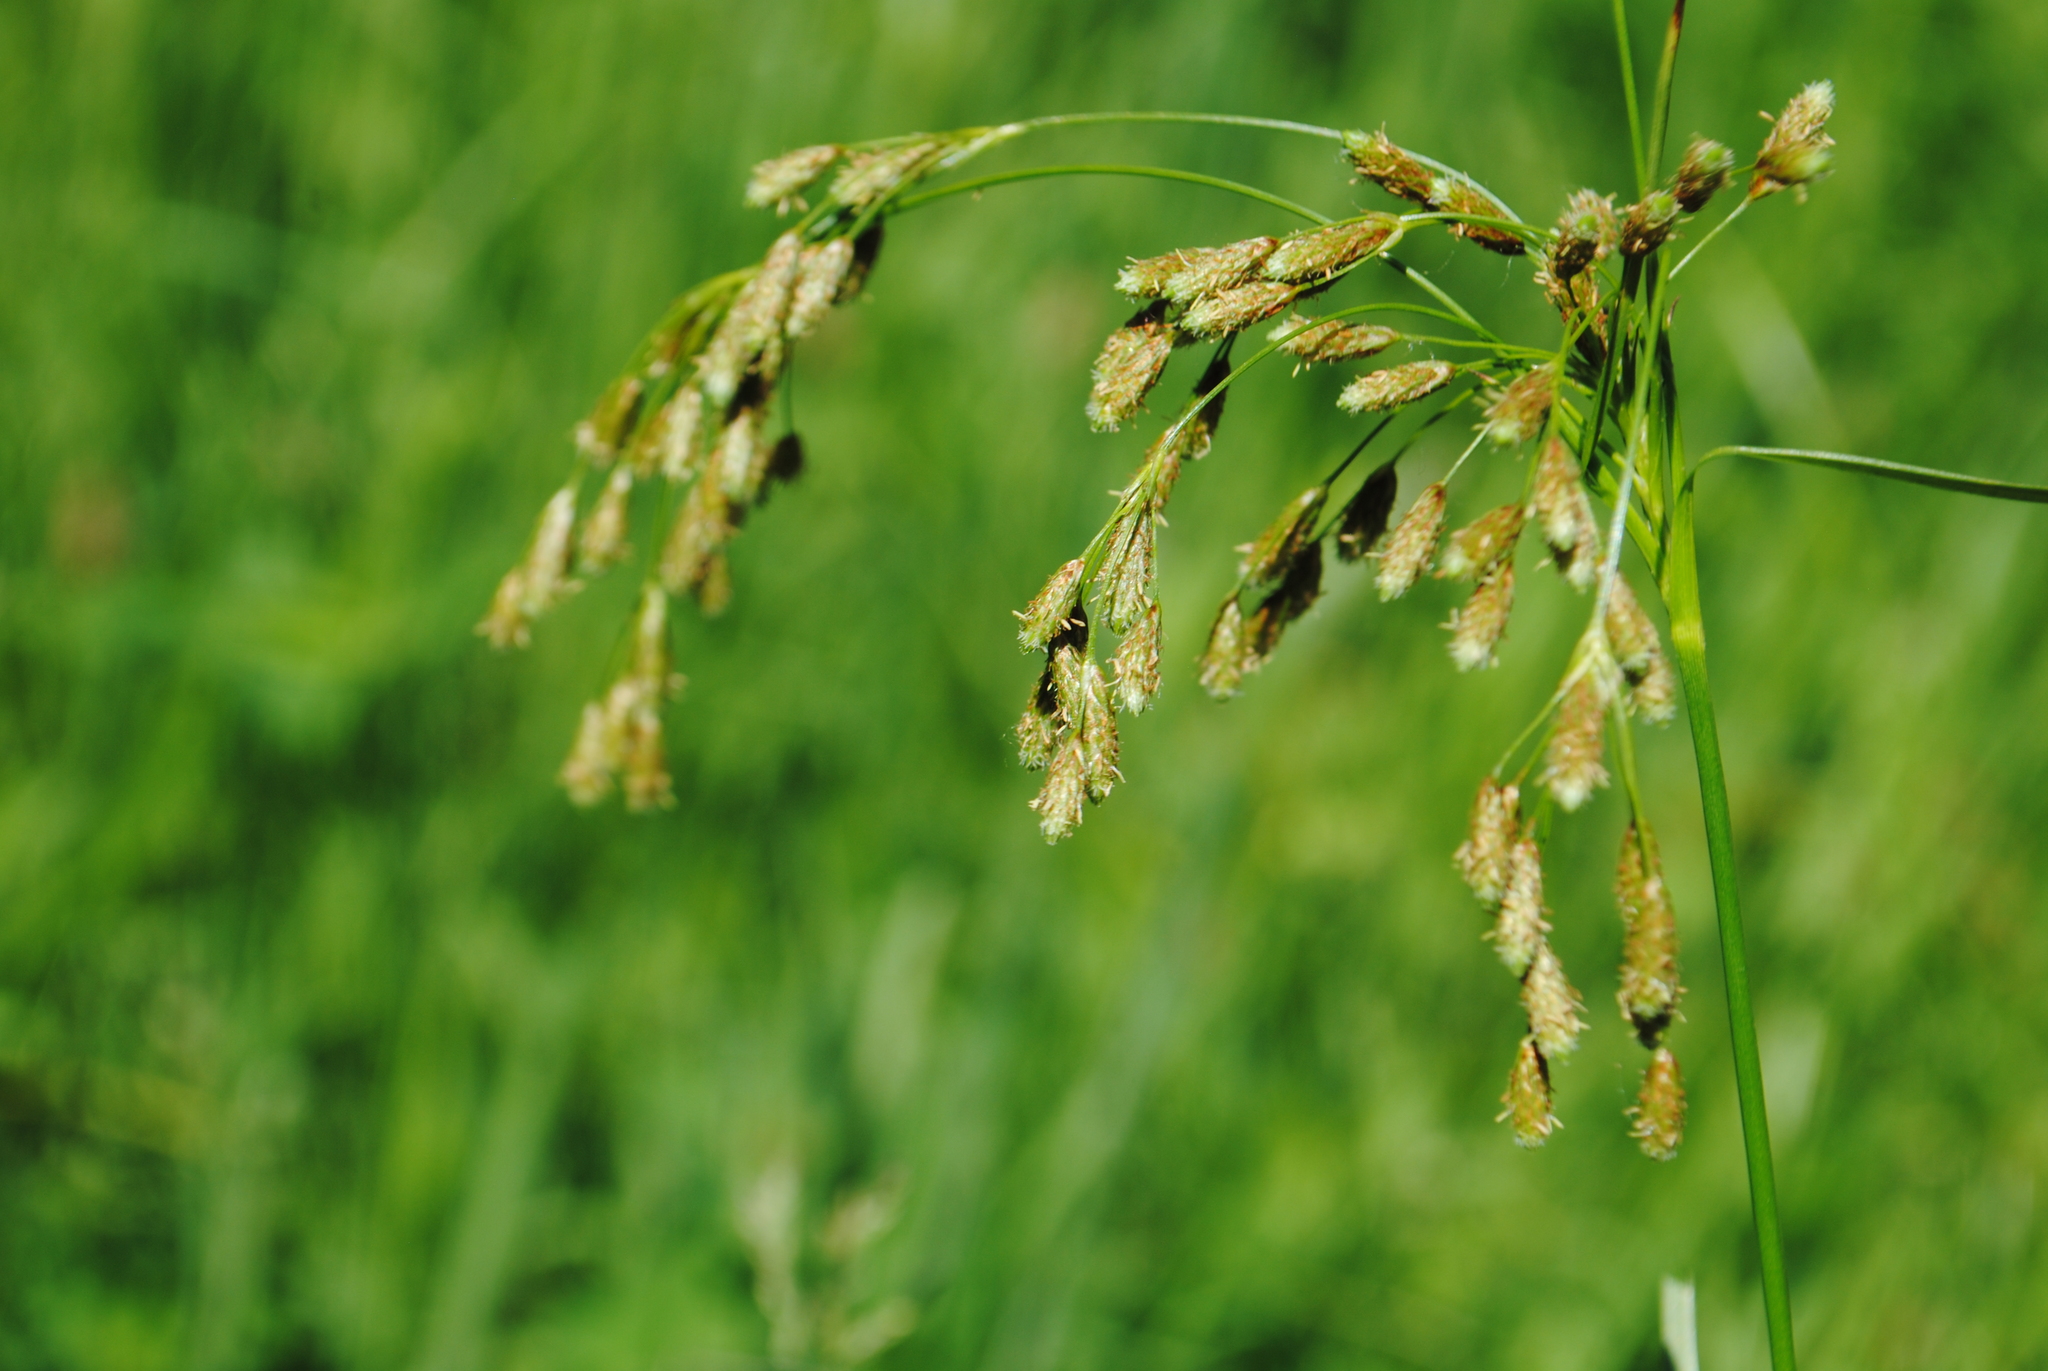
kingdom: Plantae
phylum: Tracheophyta
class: Liliopsida
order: Poales
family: Cyperaceae
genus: Scirpus
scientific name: Scirpus pendulus
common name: Nodding bulrush
